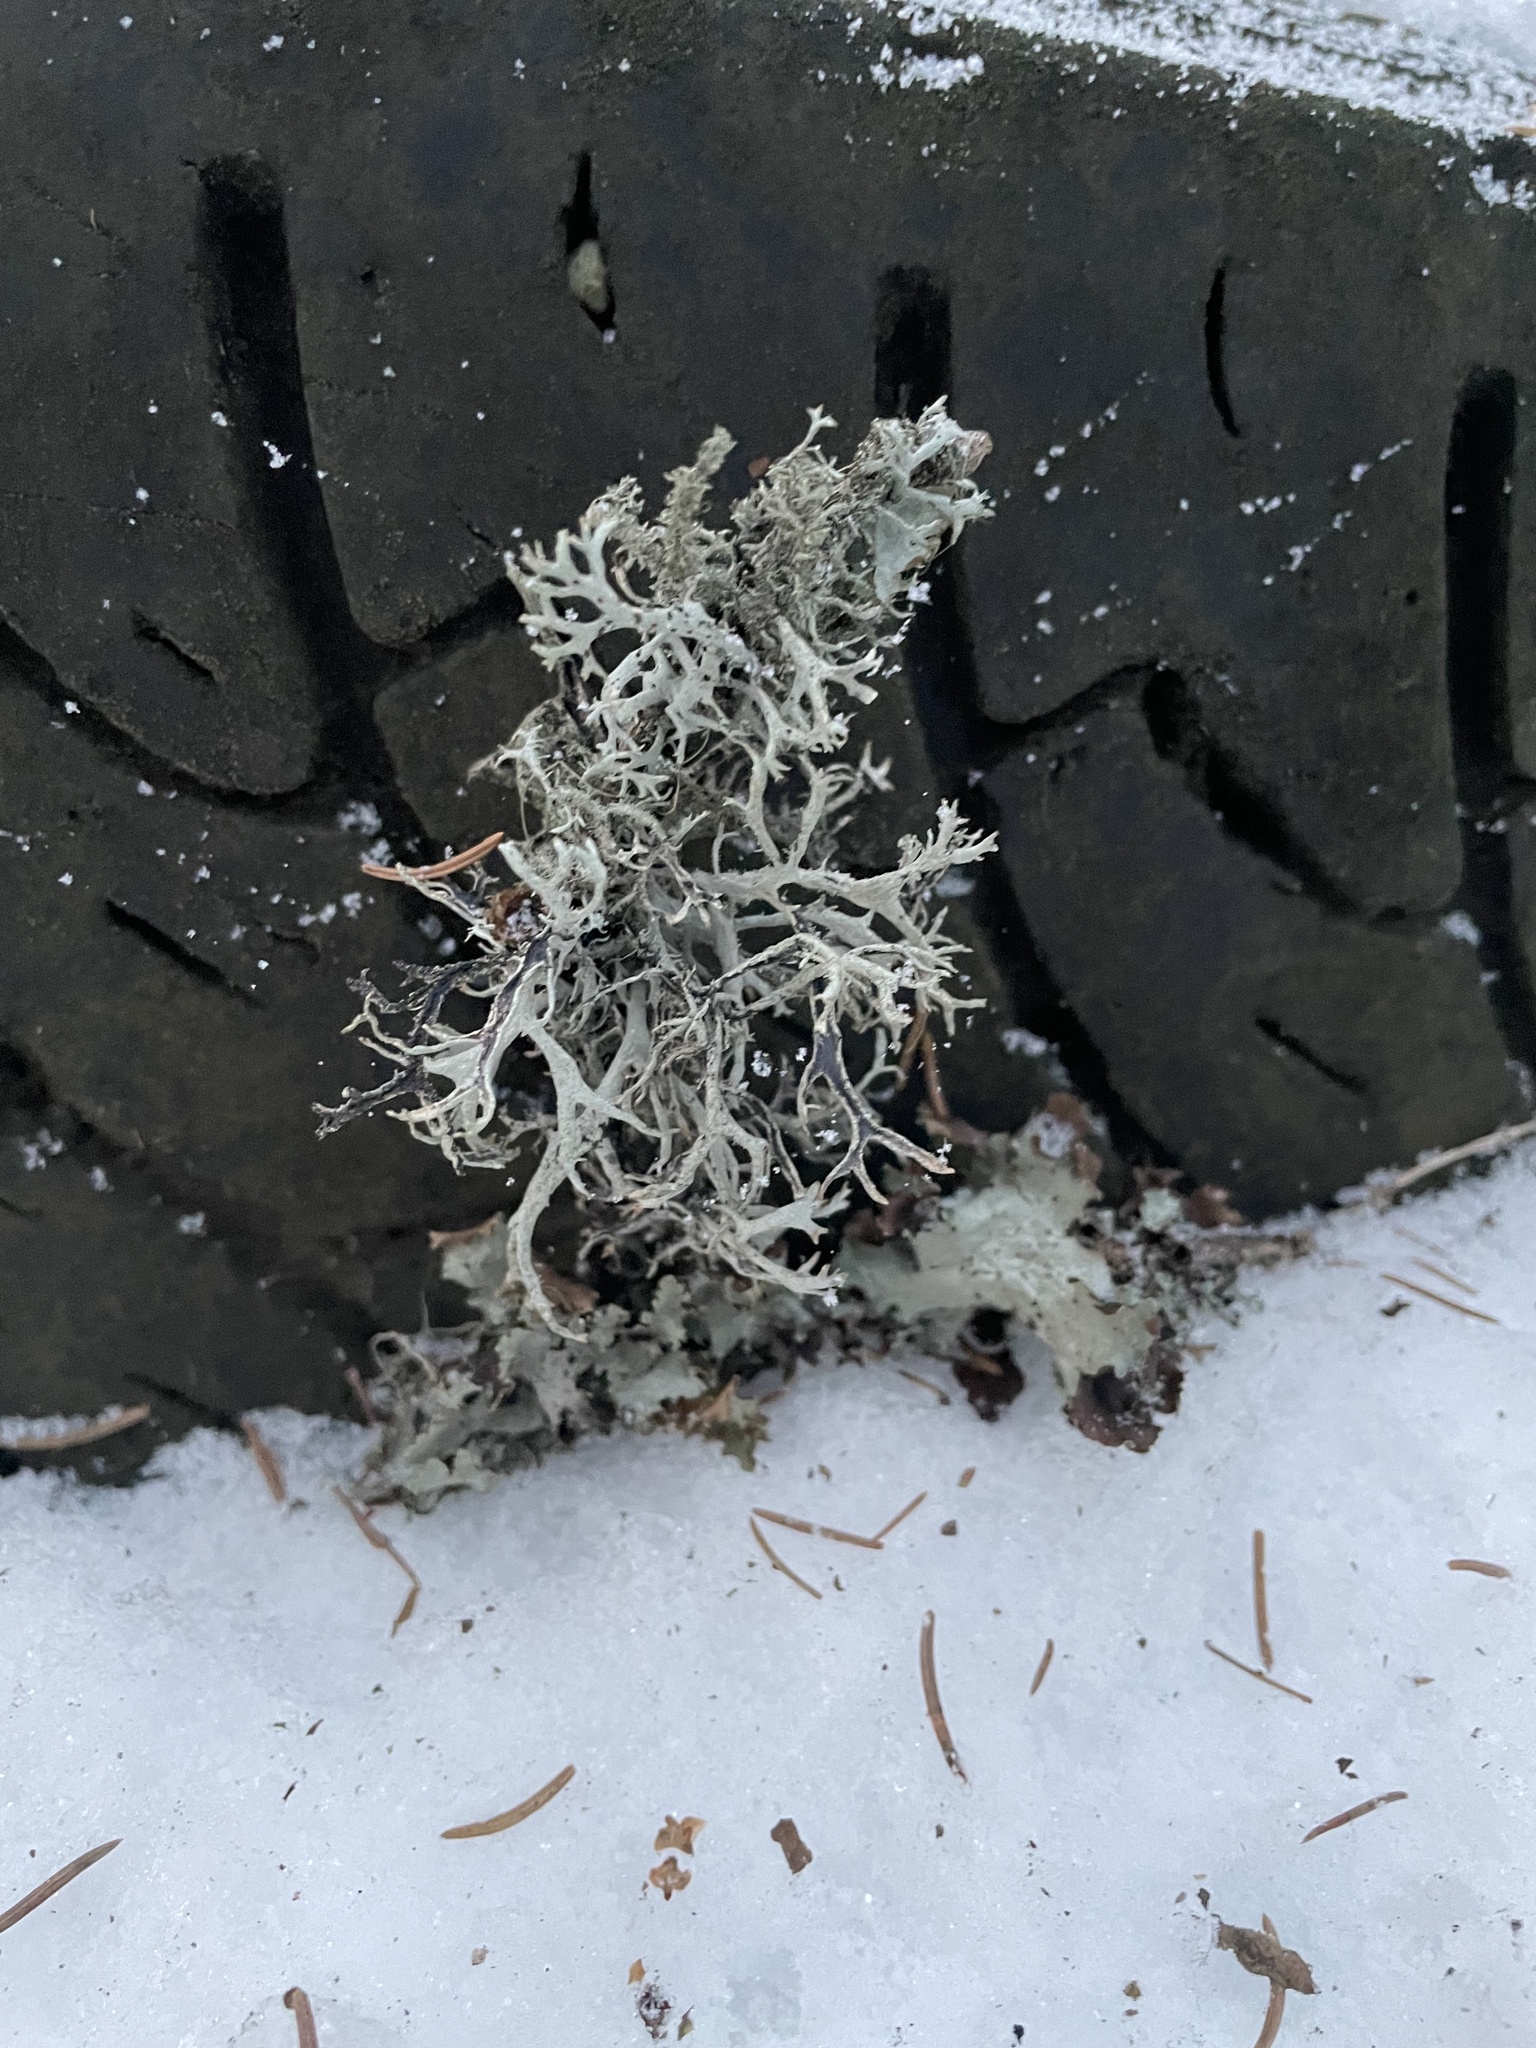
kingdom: Fungi
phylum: Ascomycota
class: Lecanoromycetes
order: Lecanorales
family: Parmeliaceae
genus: Pseudevernia
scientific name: Pseudevernia furfuracea
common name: Tree moss
